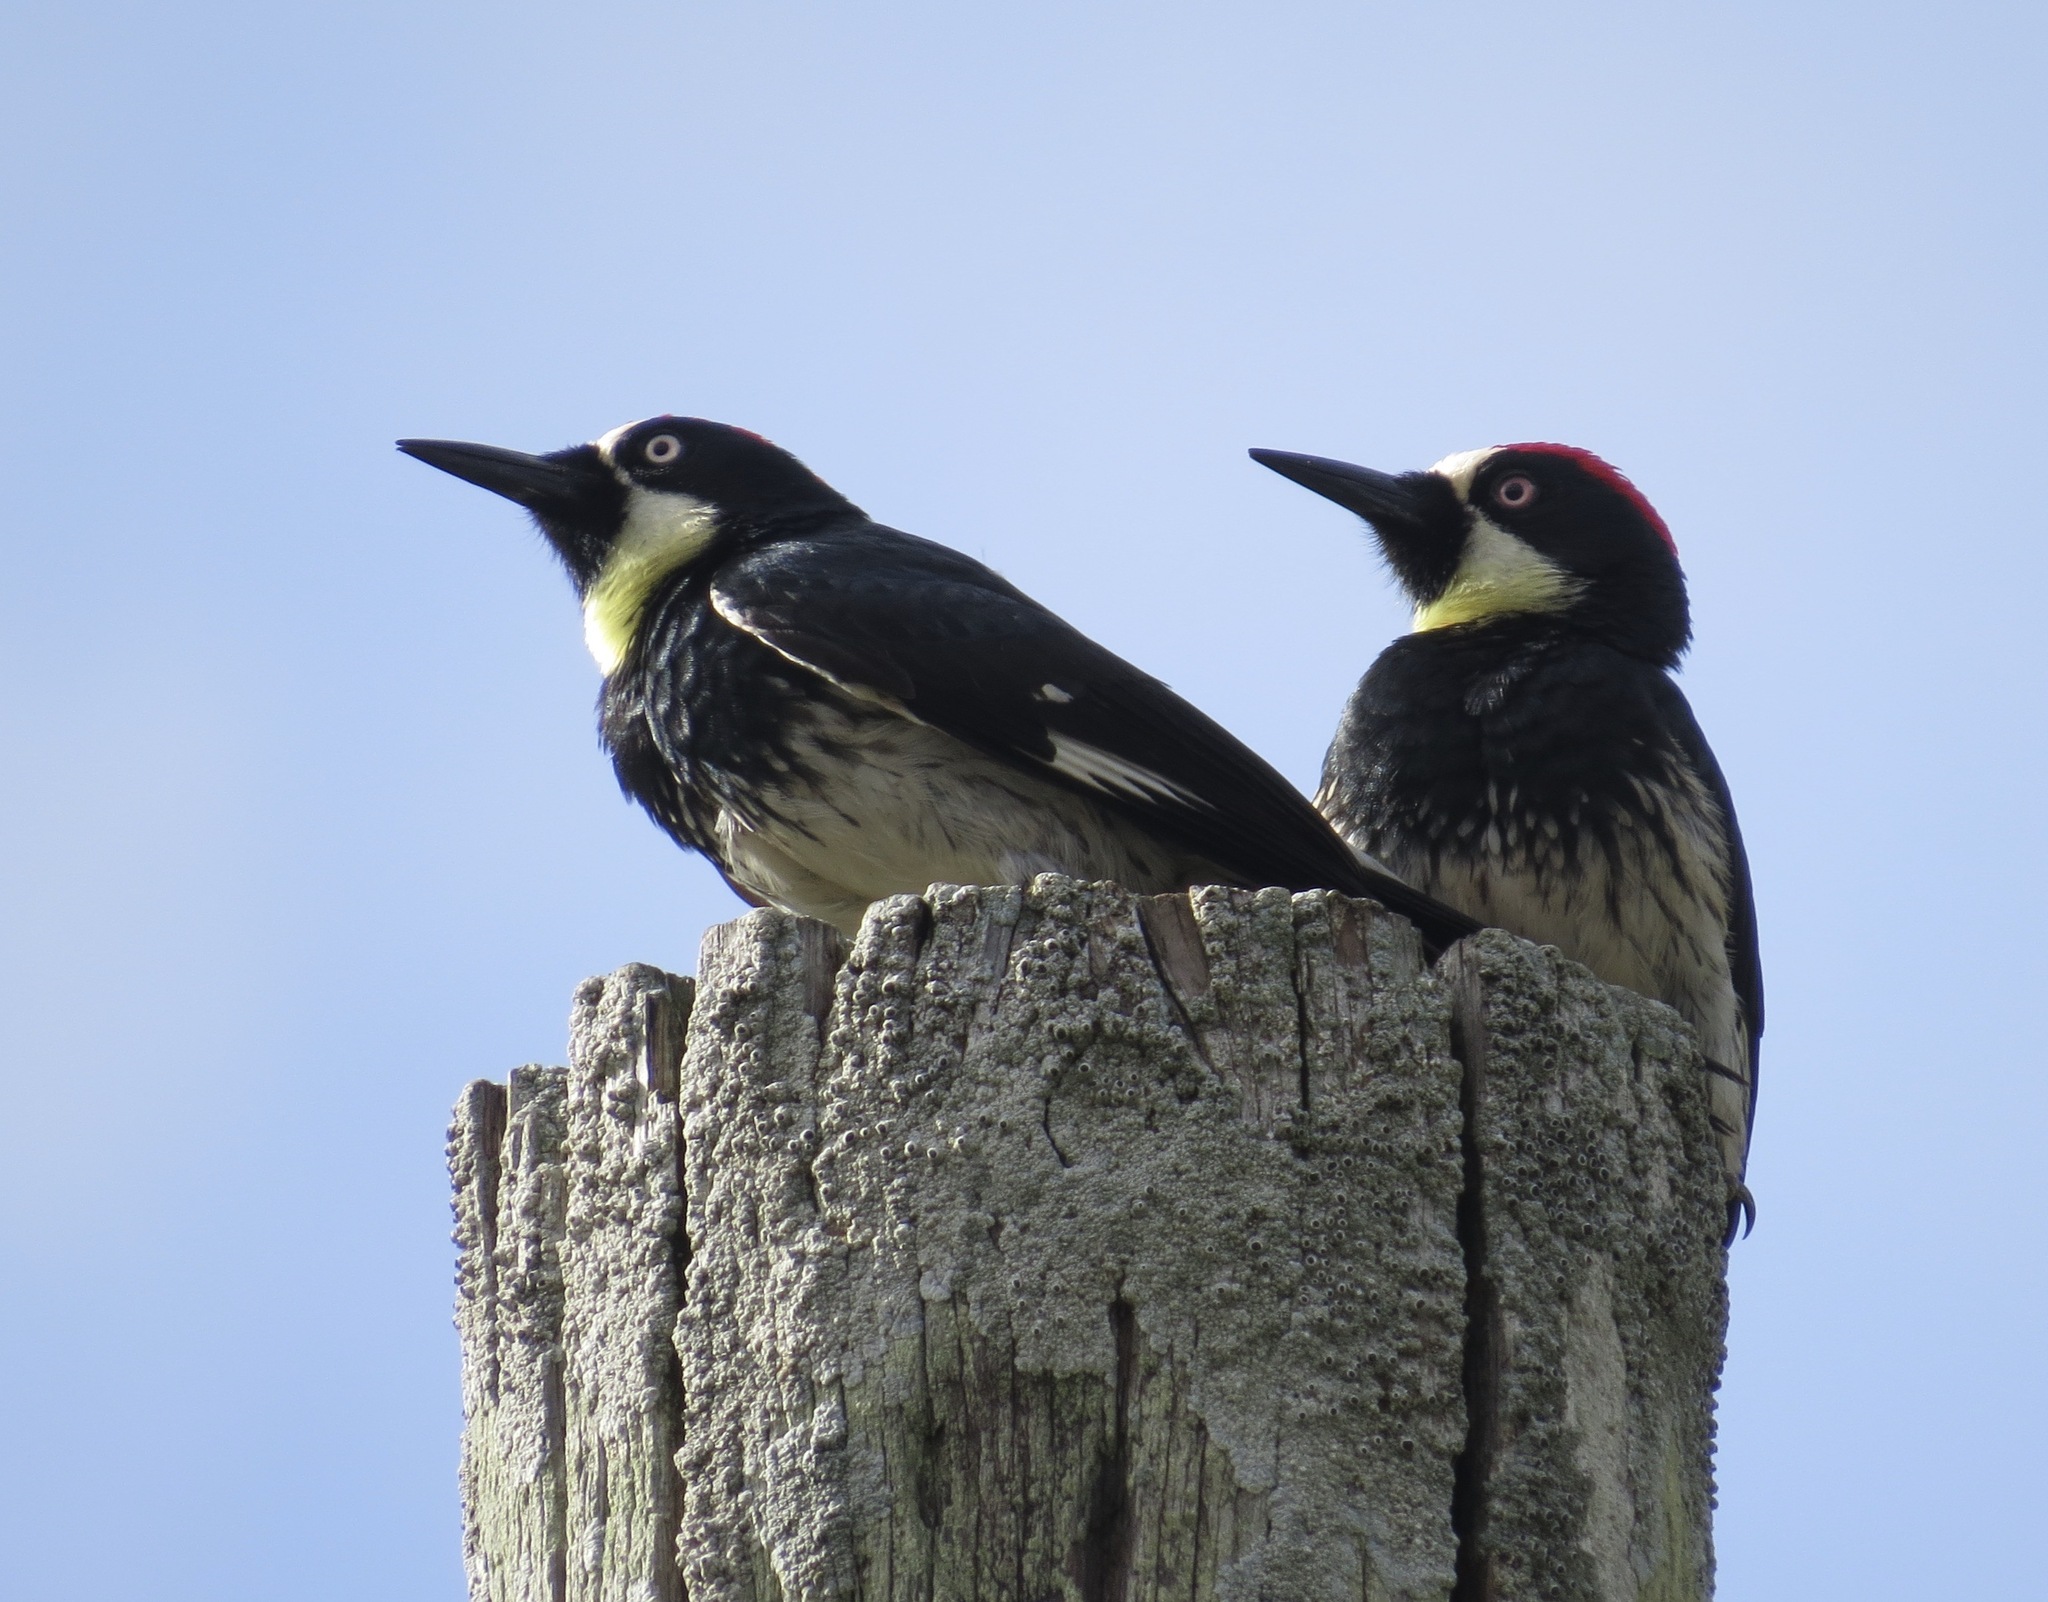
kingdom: Animalia
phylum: Chordata
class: Aves
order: Piciformes
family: Picidae
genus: Melanerpes
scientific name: Melanerpes formicivorus
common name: Acorn woodpecker
